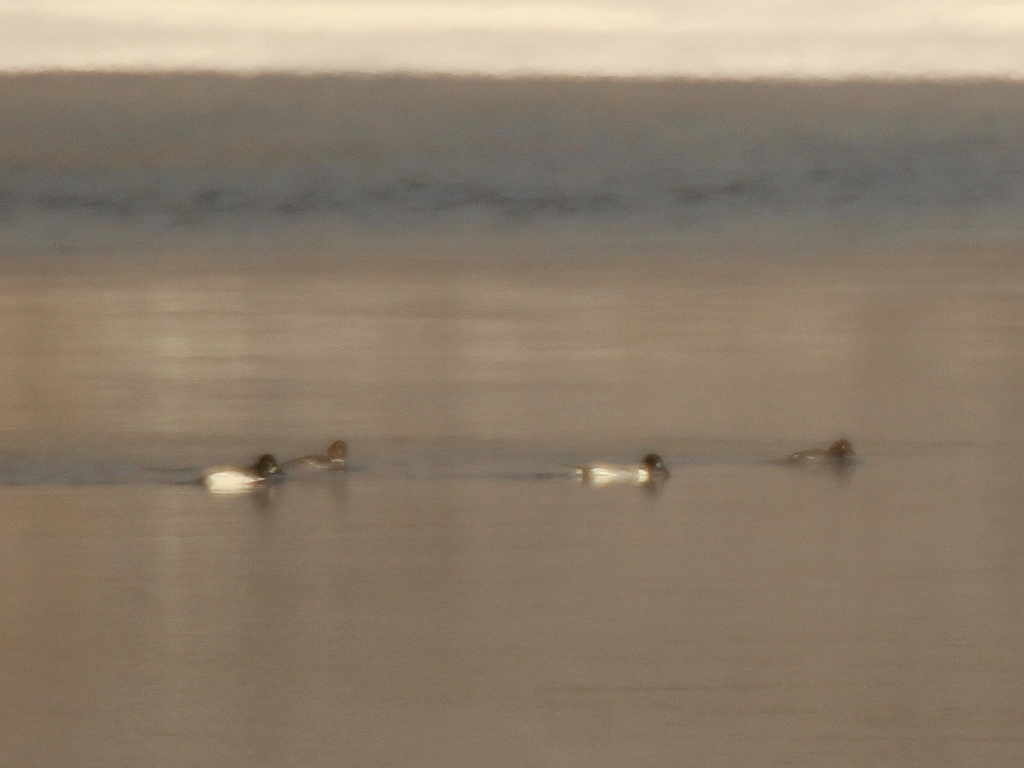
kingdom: Animalia
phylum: Chordata
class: Aves
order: Anseriformes
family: Anatidae
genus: Bucephala
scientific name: Bucephala clangula
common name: Common goldeneye
